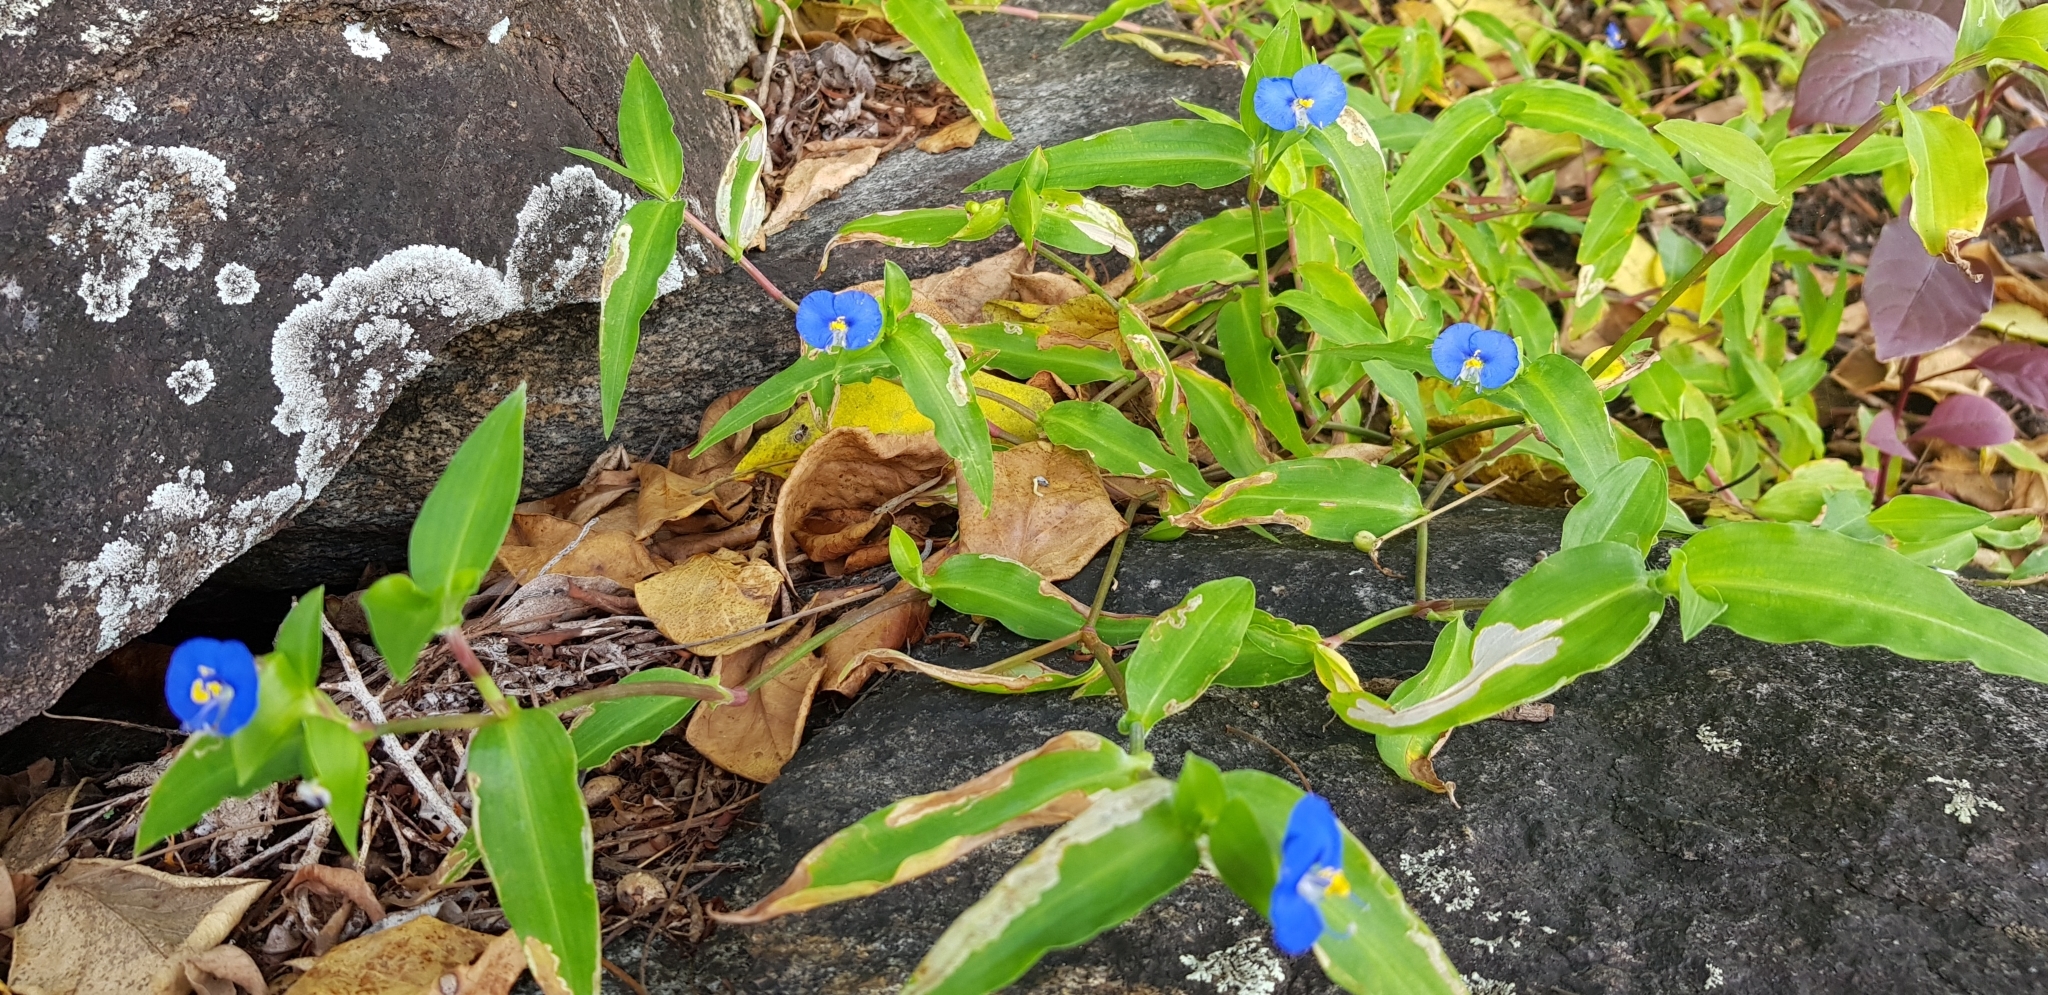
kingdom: Plantae
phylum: Tracheophyta
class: Liliopsida
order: Commelinales
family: Commelinaceae
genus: Commelina
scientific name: Commelina ensifolia
